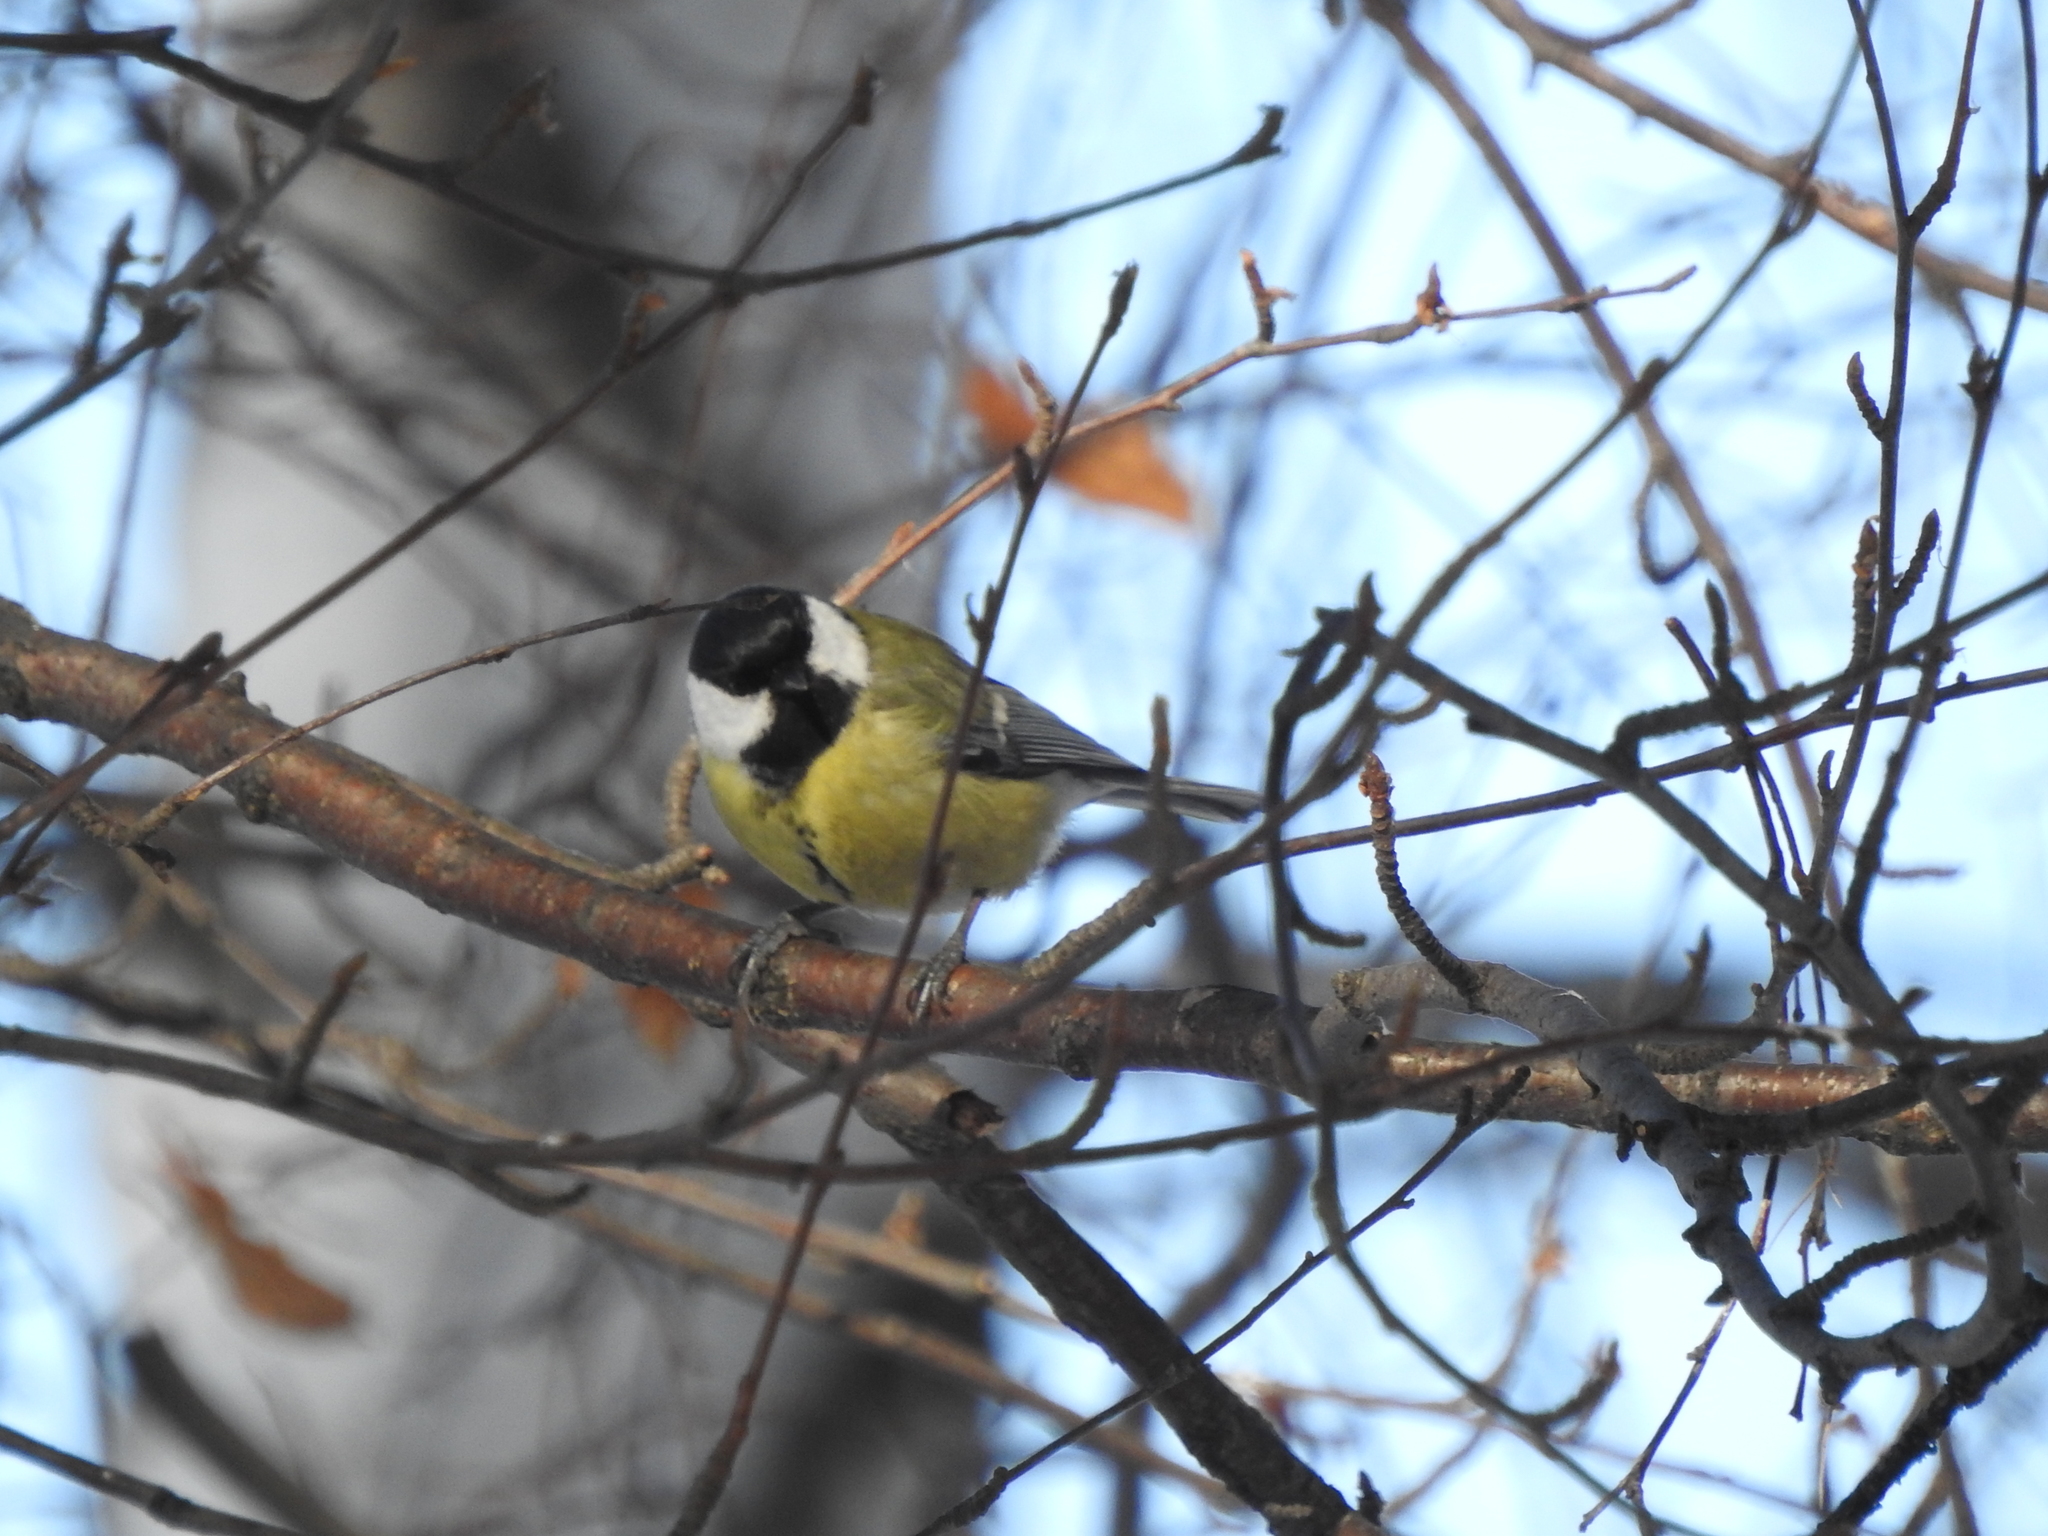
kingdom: Animalia
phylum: Chordata
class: Aves
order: Passeriformes
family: Paridae
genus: Parus
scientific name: Parus major
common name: Great tit
